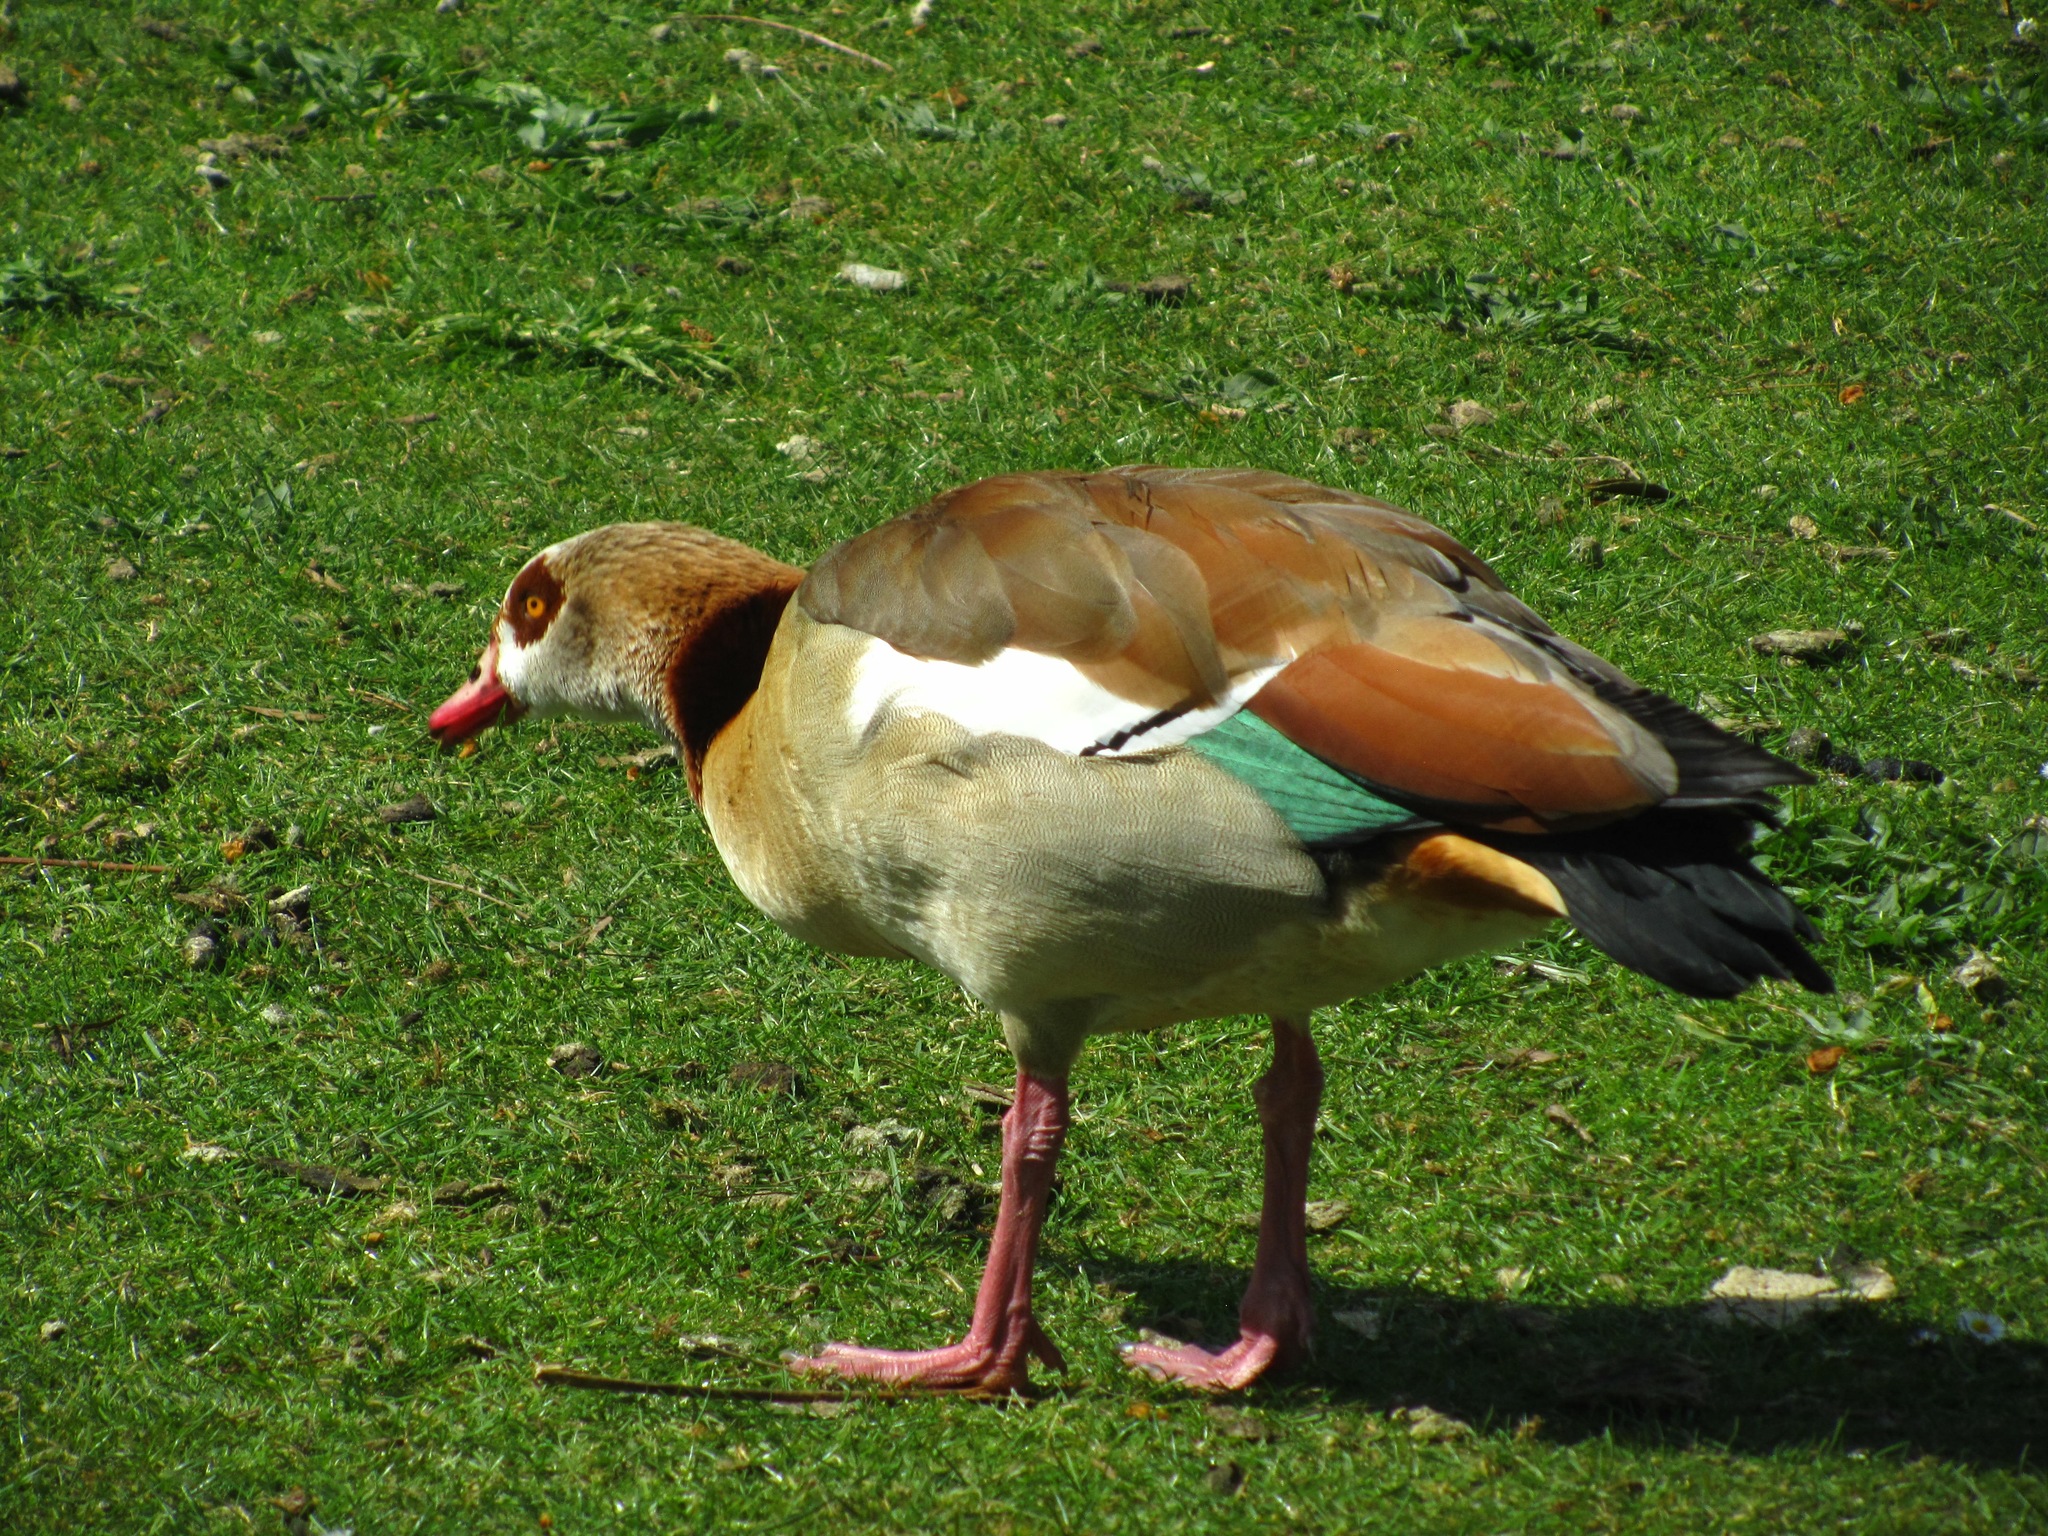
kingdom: Animalia
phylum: Chordata
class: Aves
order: Anseriformes
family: Anatidae
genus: Alopochen
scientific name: Alopochen aegyptiaca
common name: Egyptian goose
